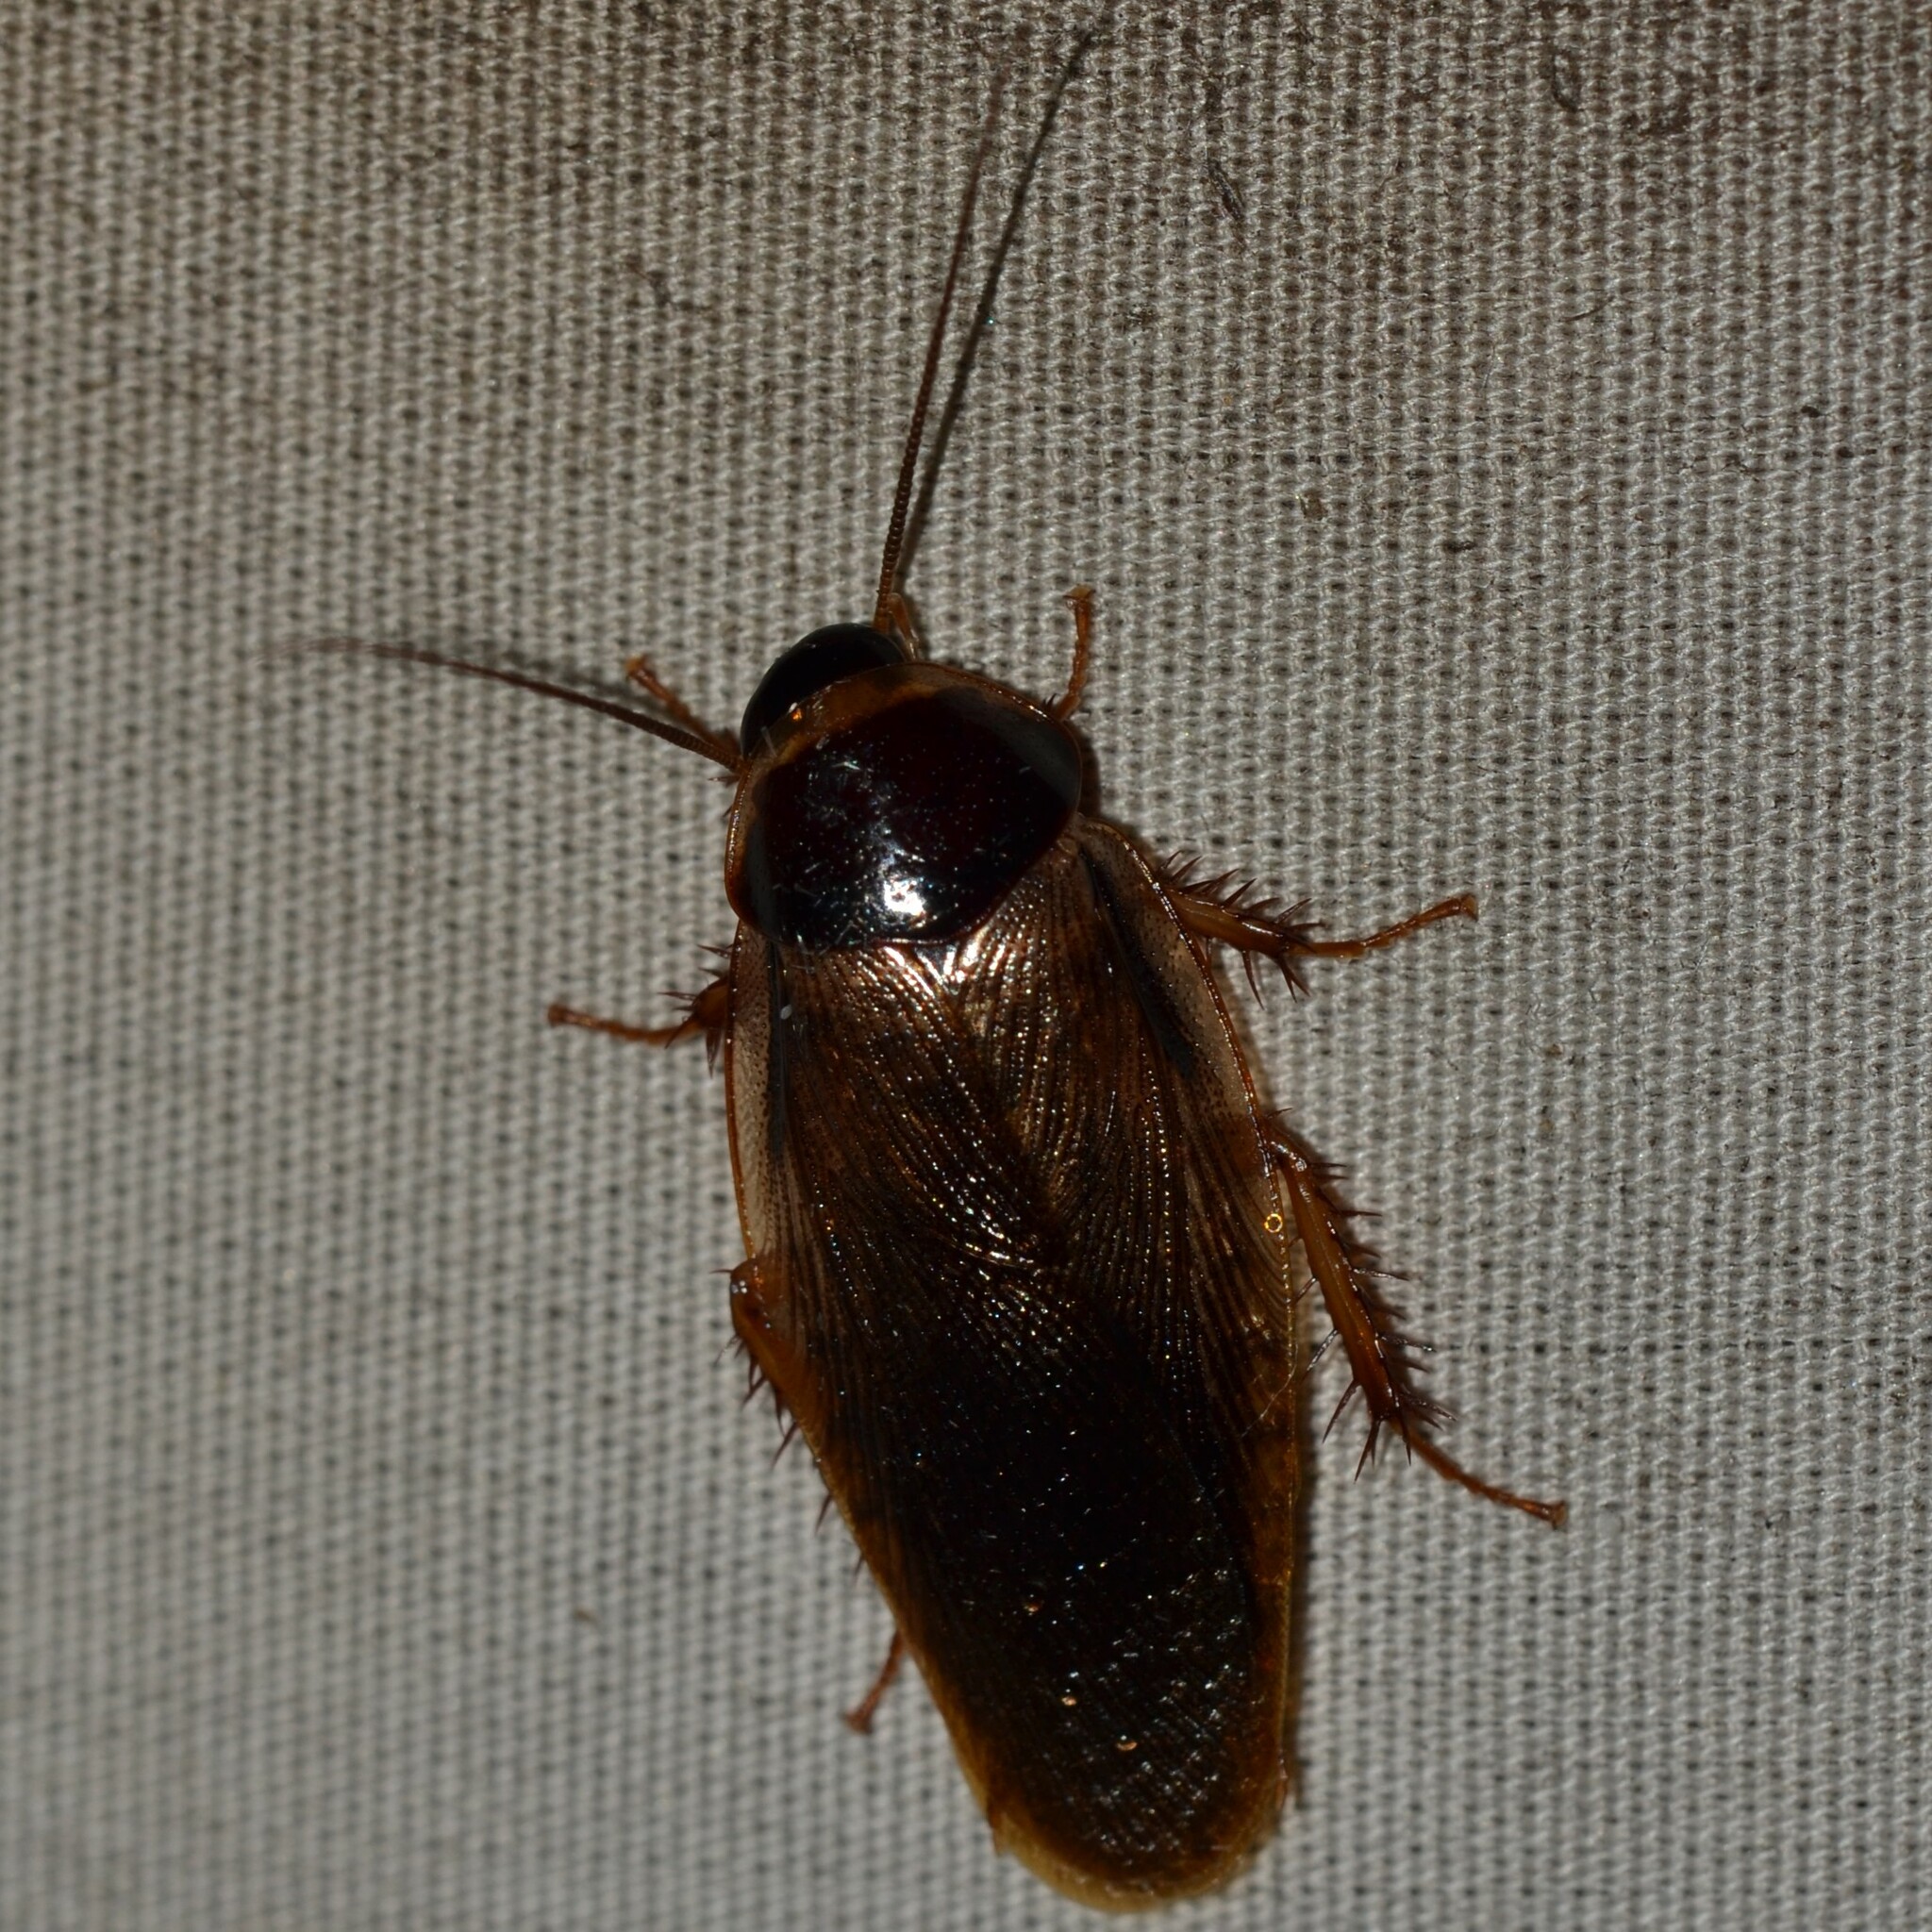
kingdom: Animalia
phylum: Arthropoda
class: Insecta
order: Blattodea
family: Blaberidae
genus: Pycnoscelus
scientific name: Pycnoscelus indicus
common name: Burrowing cockroach
